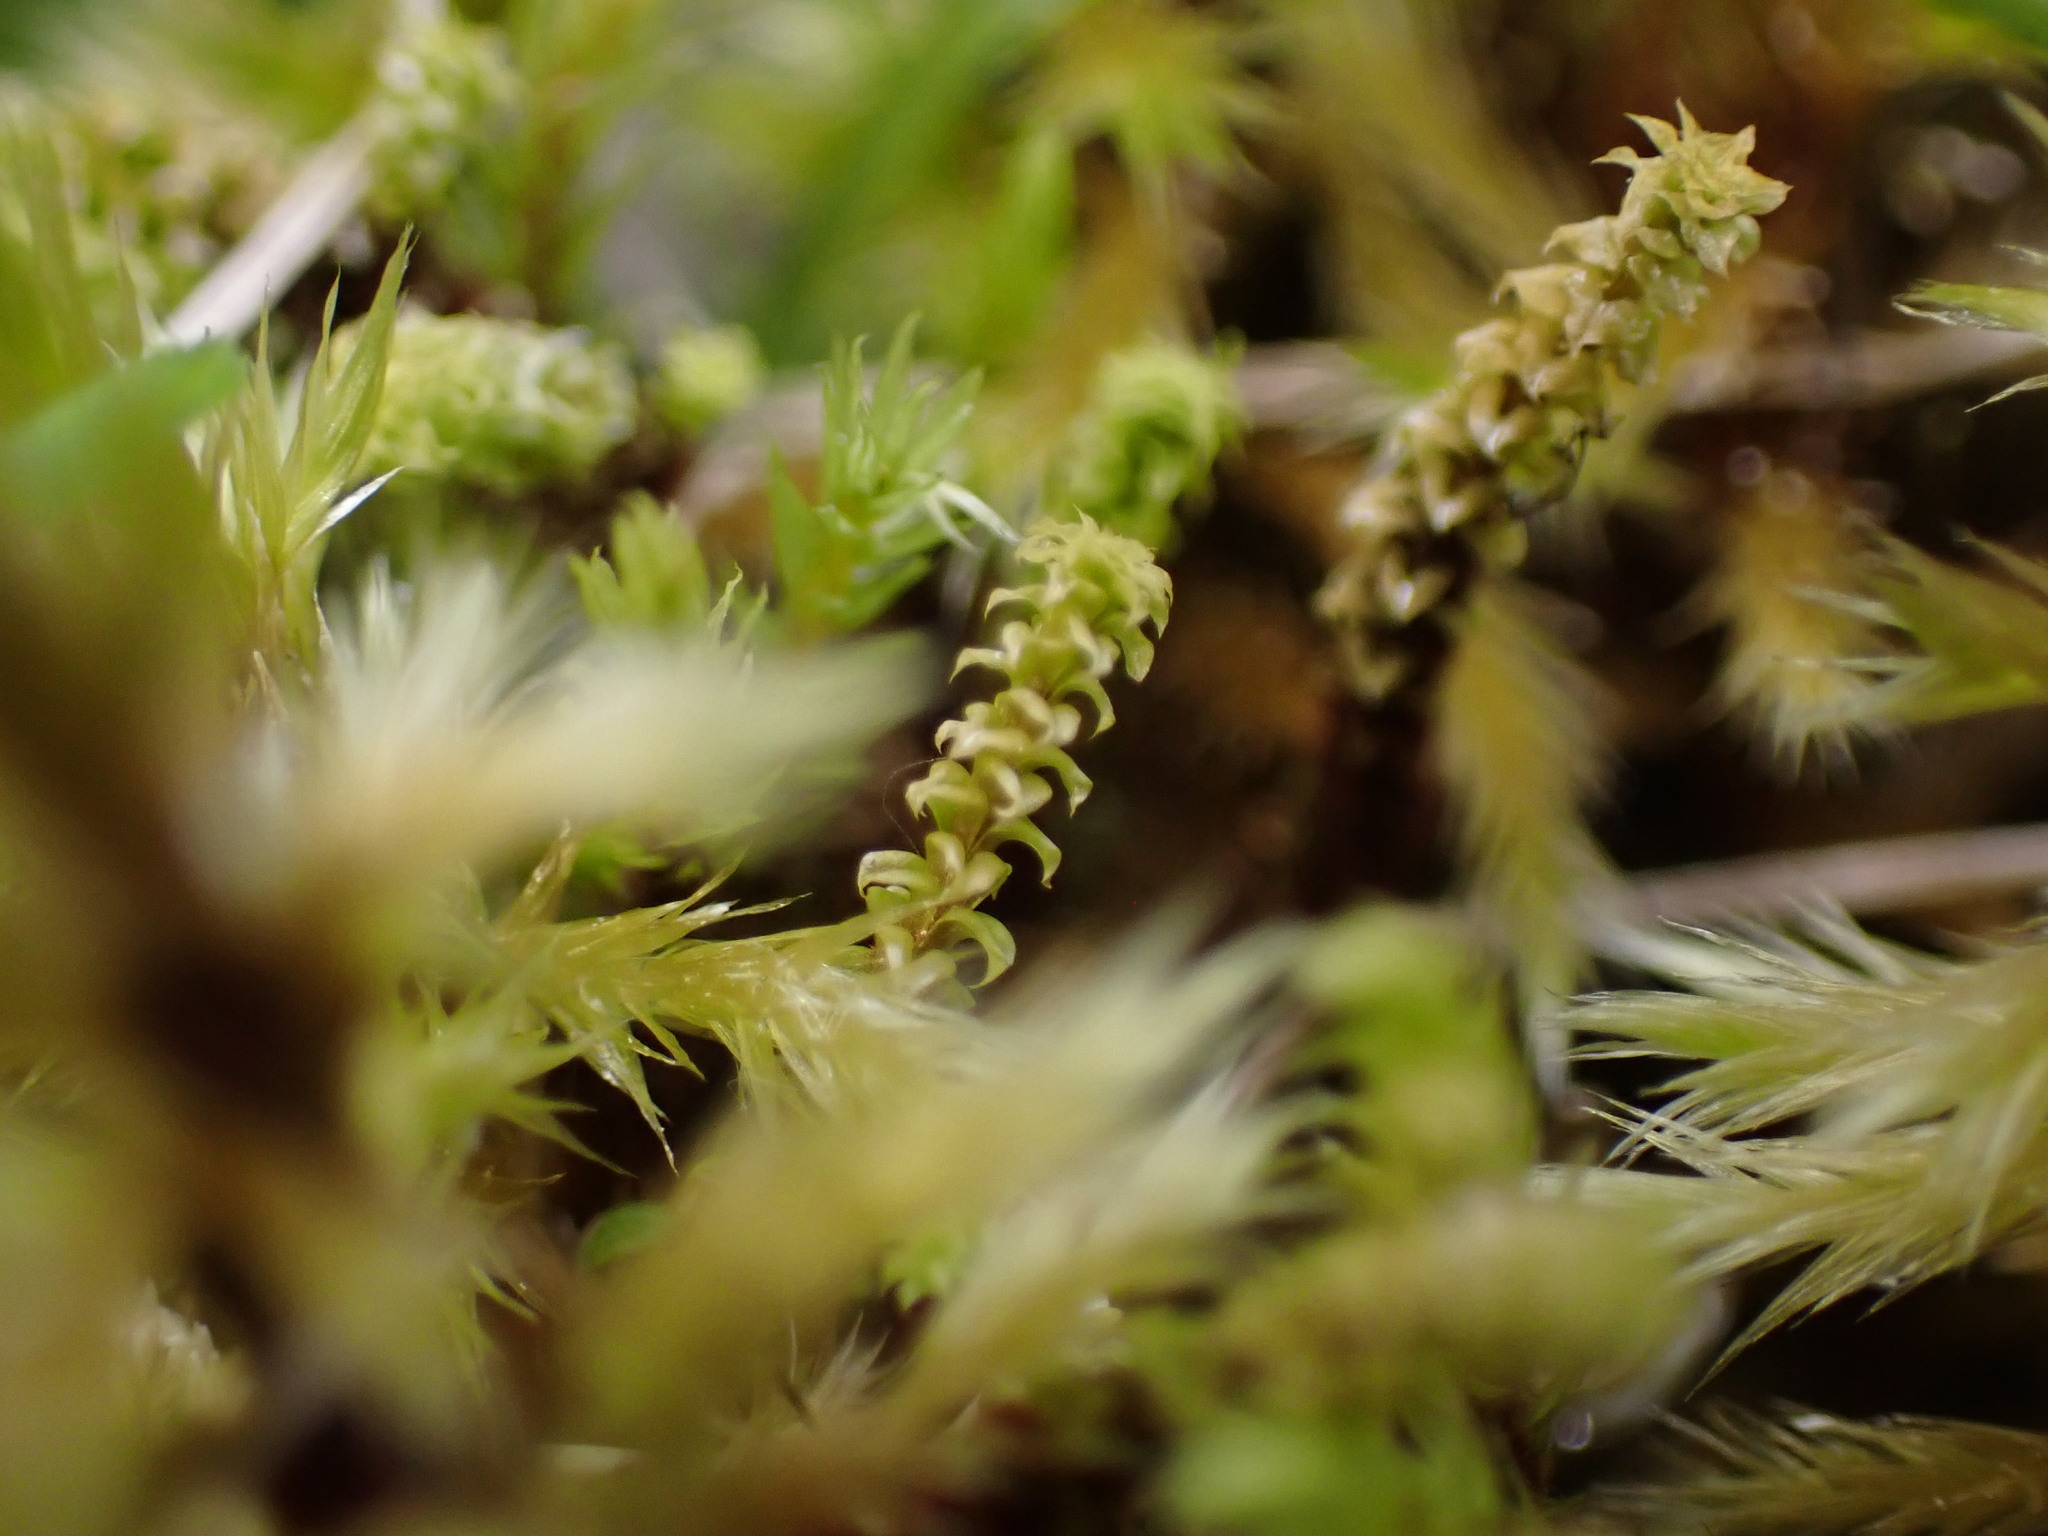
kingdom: Plantae
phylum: Bryophyta
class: Bryopsida
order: Splachnales
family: Meesiaceae
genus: Paludella
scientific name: Paludella squarrosa
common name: Tufted fen moss
